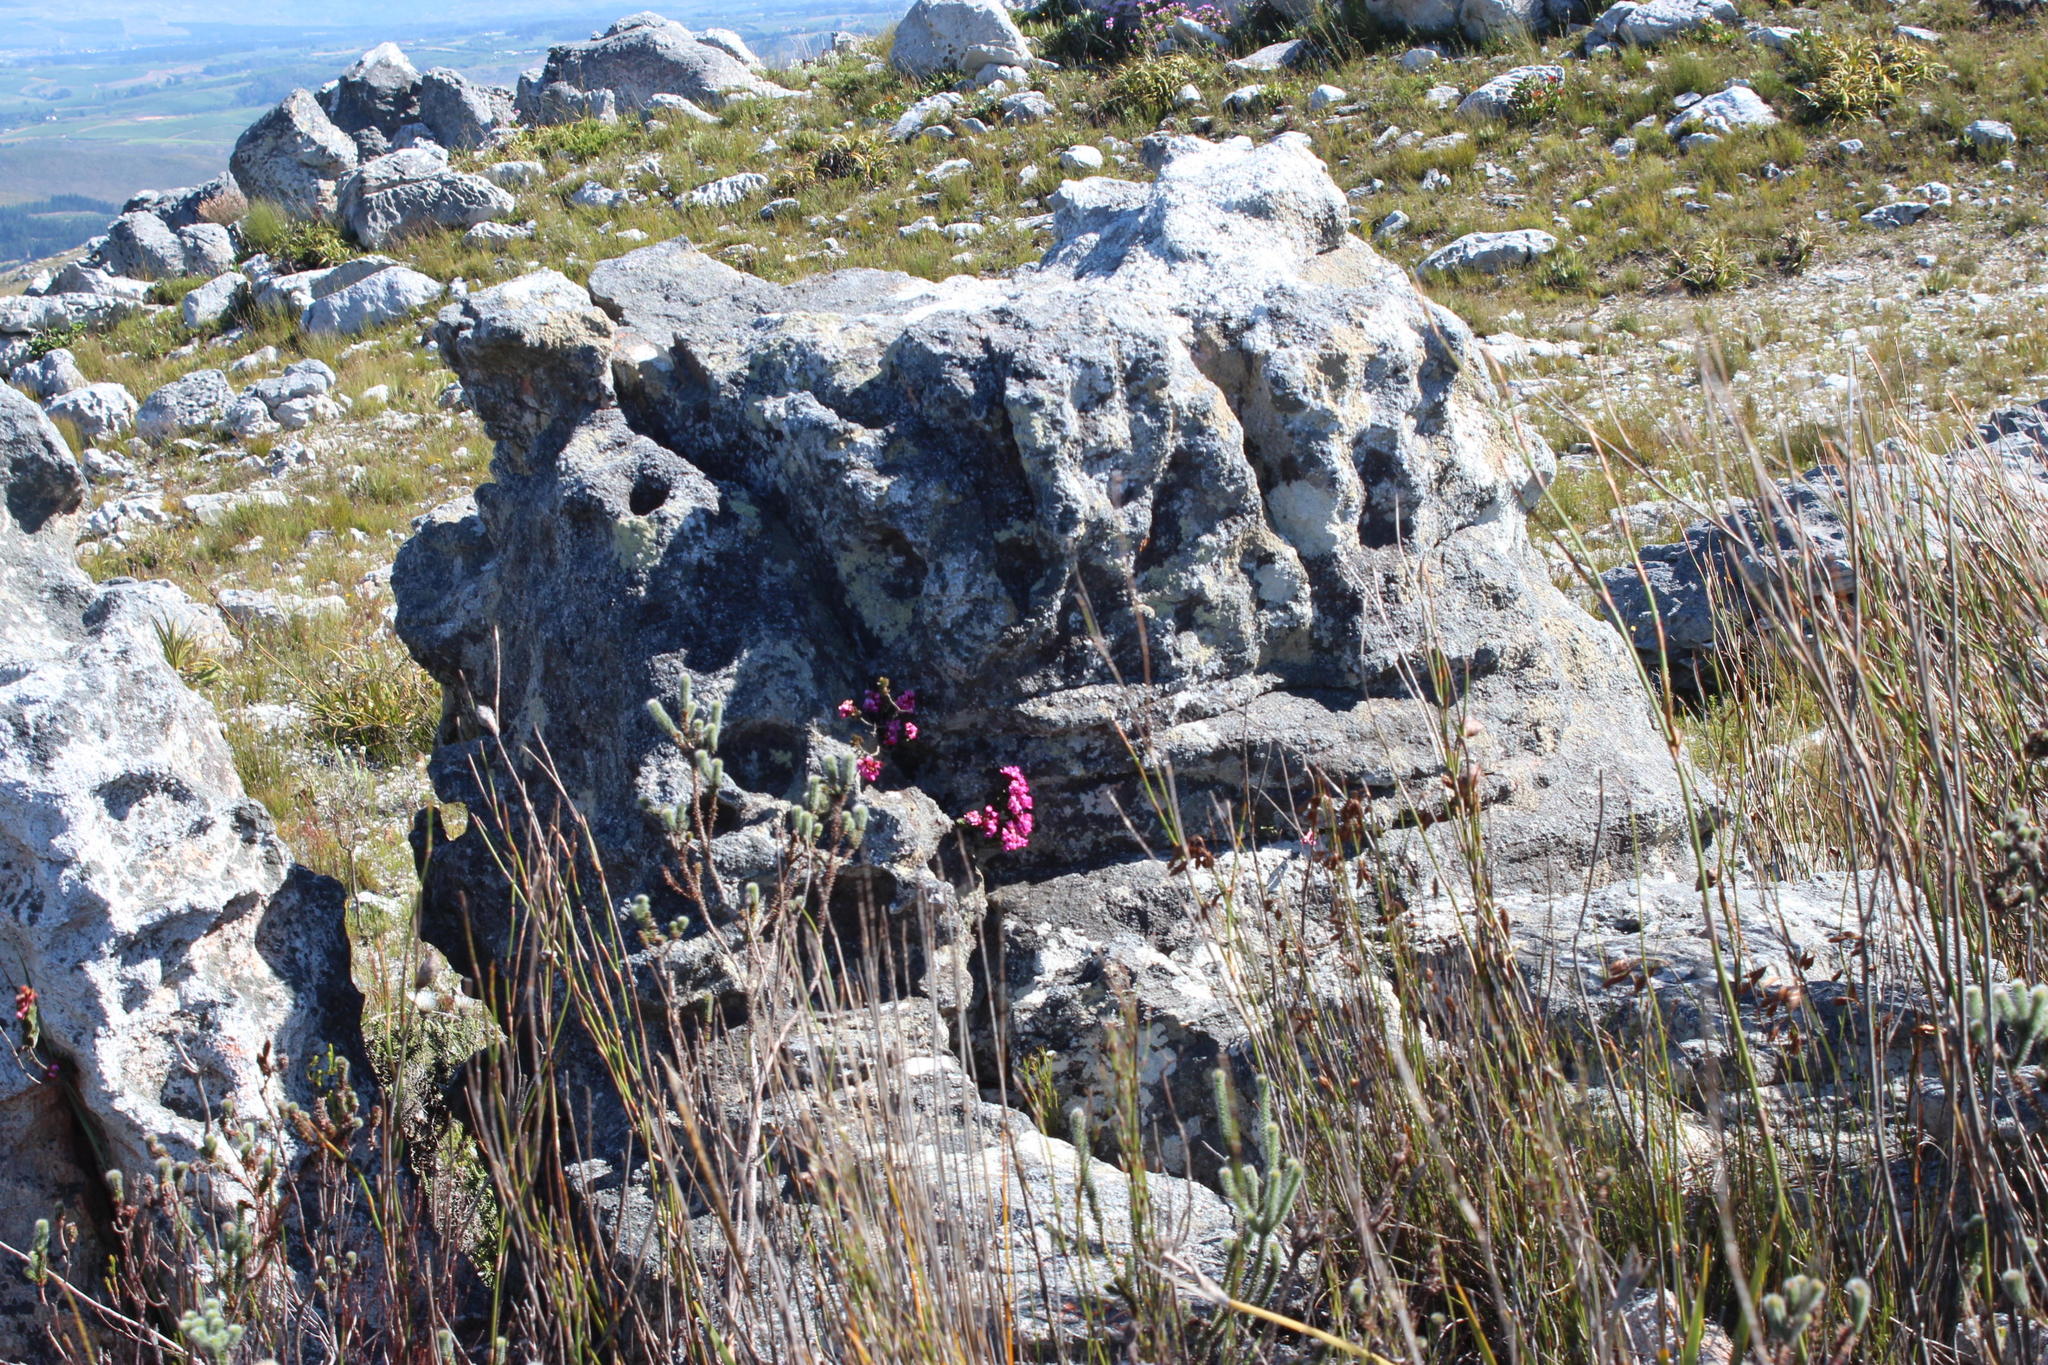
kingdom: Plantae
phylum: Tracheophyta
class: Magnoliopsida
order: Myrtales
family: Penaeaceae
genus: Sonderothamnus
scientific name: Sonderothamnus petraeus
